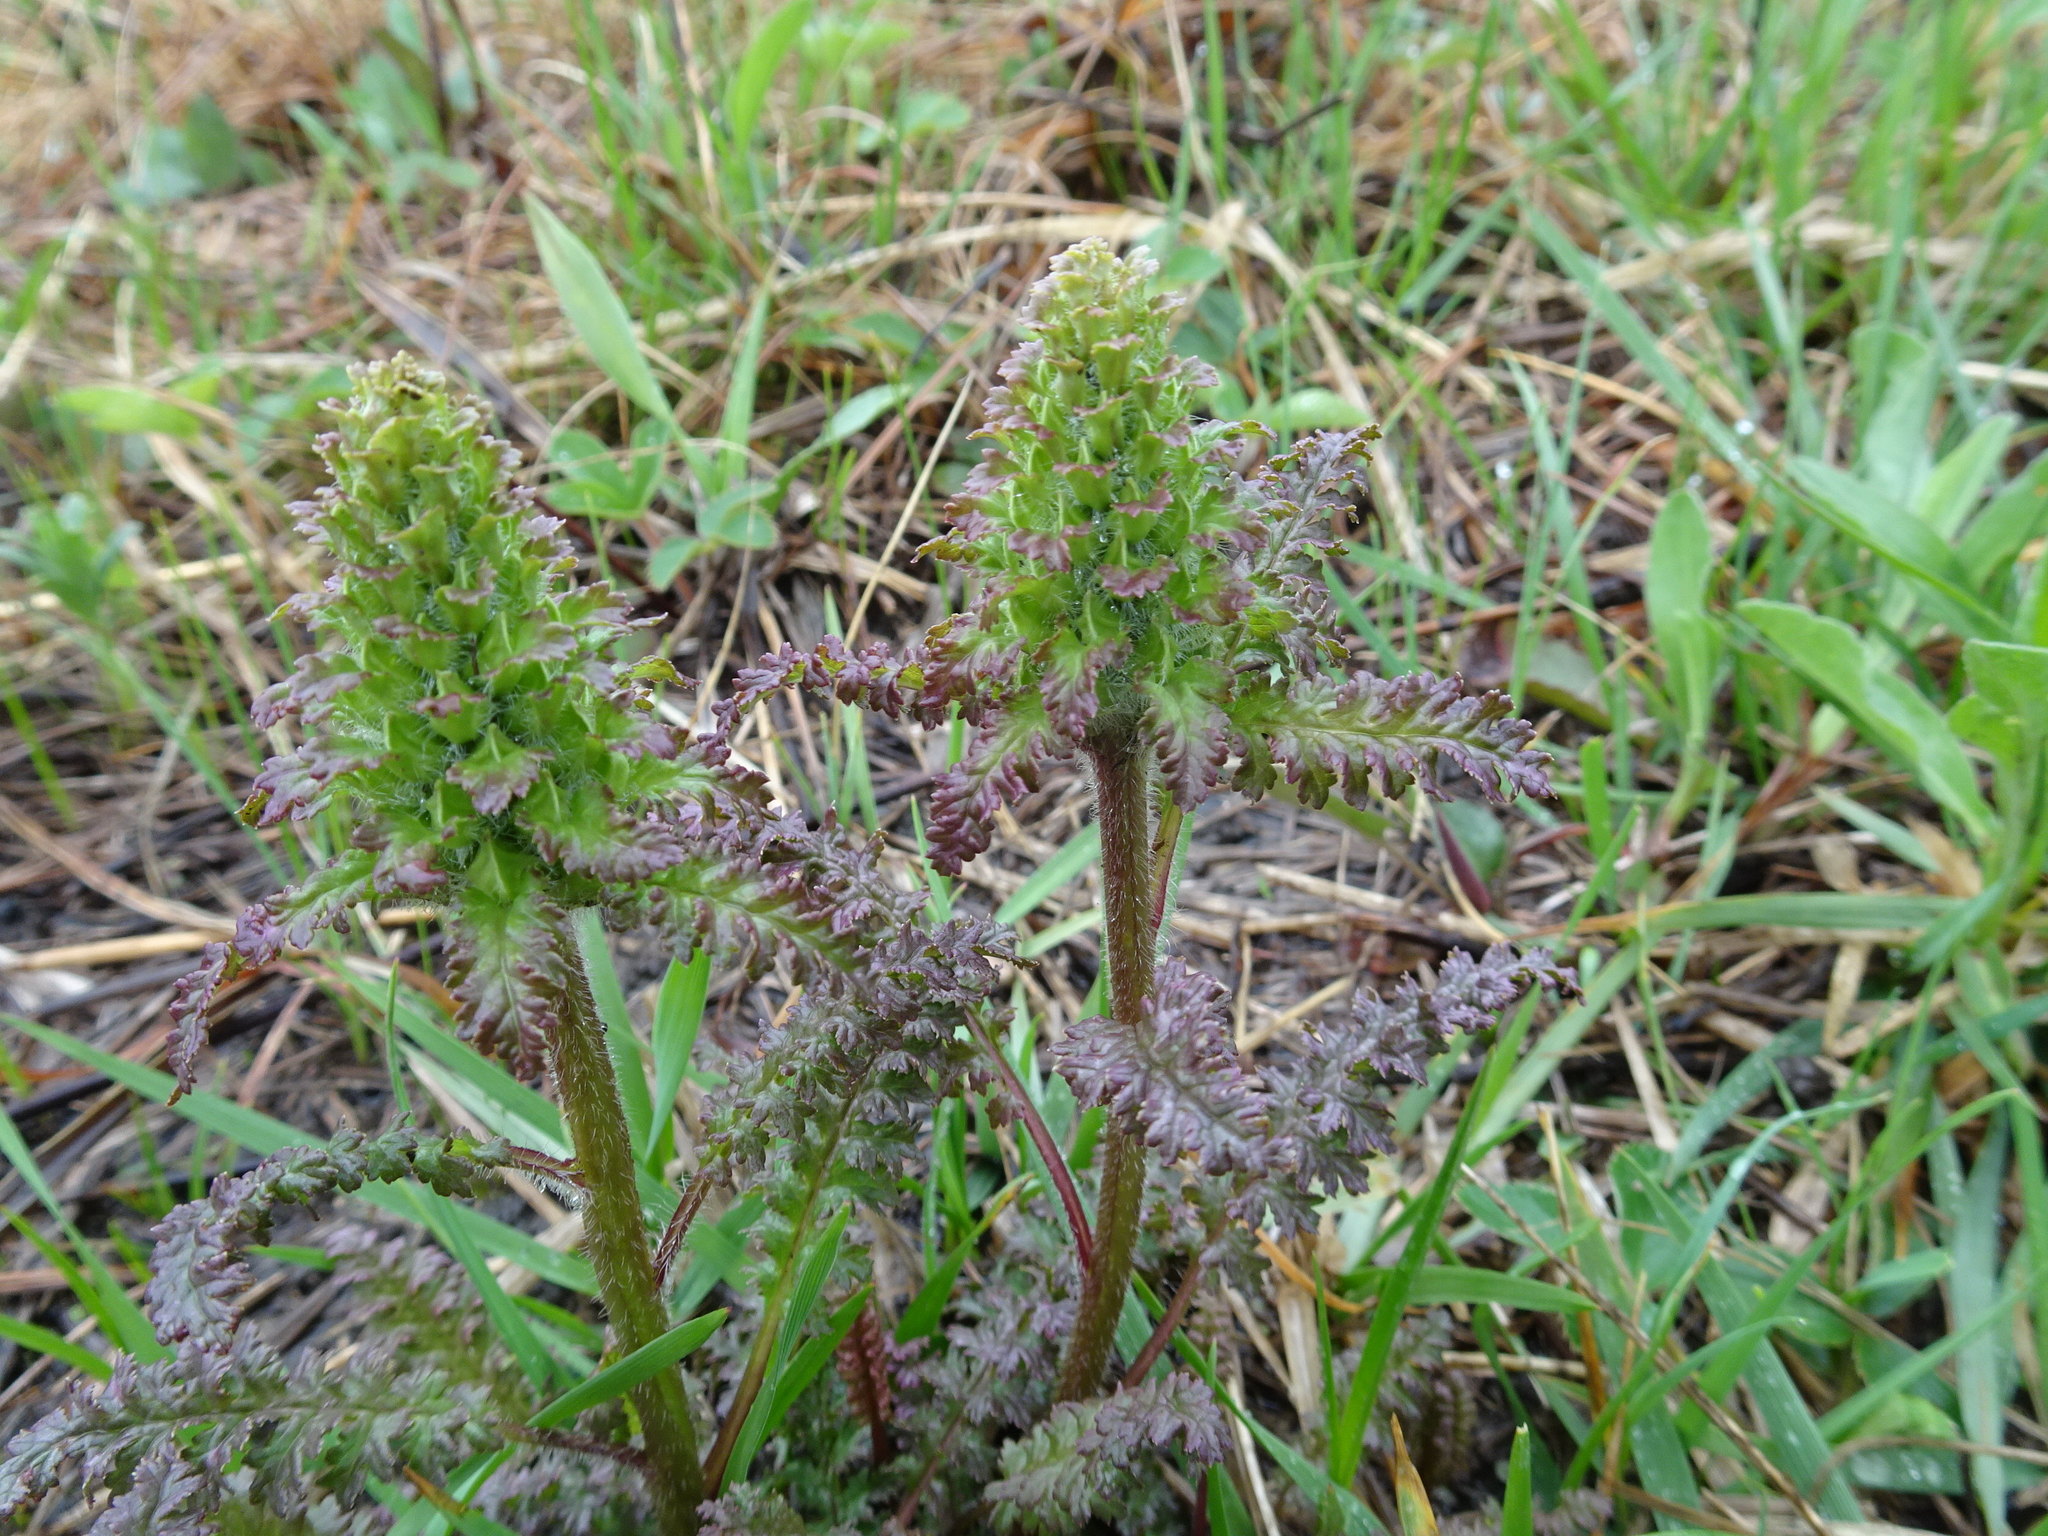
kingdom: Plantae
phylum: Tracheophyta
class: Magnoliopsida
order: Lamiales
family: Orobanchaceae
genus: Pedicularis
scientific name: Pedicularis canadensis
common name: Early lousewort
